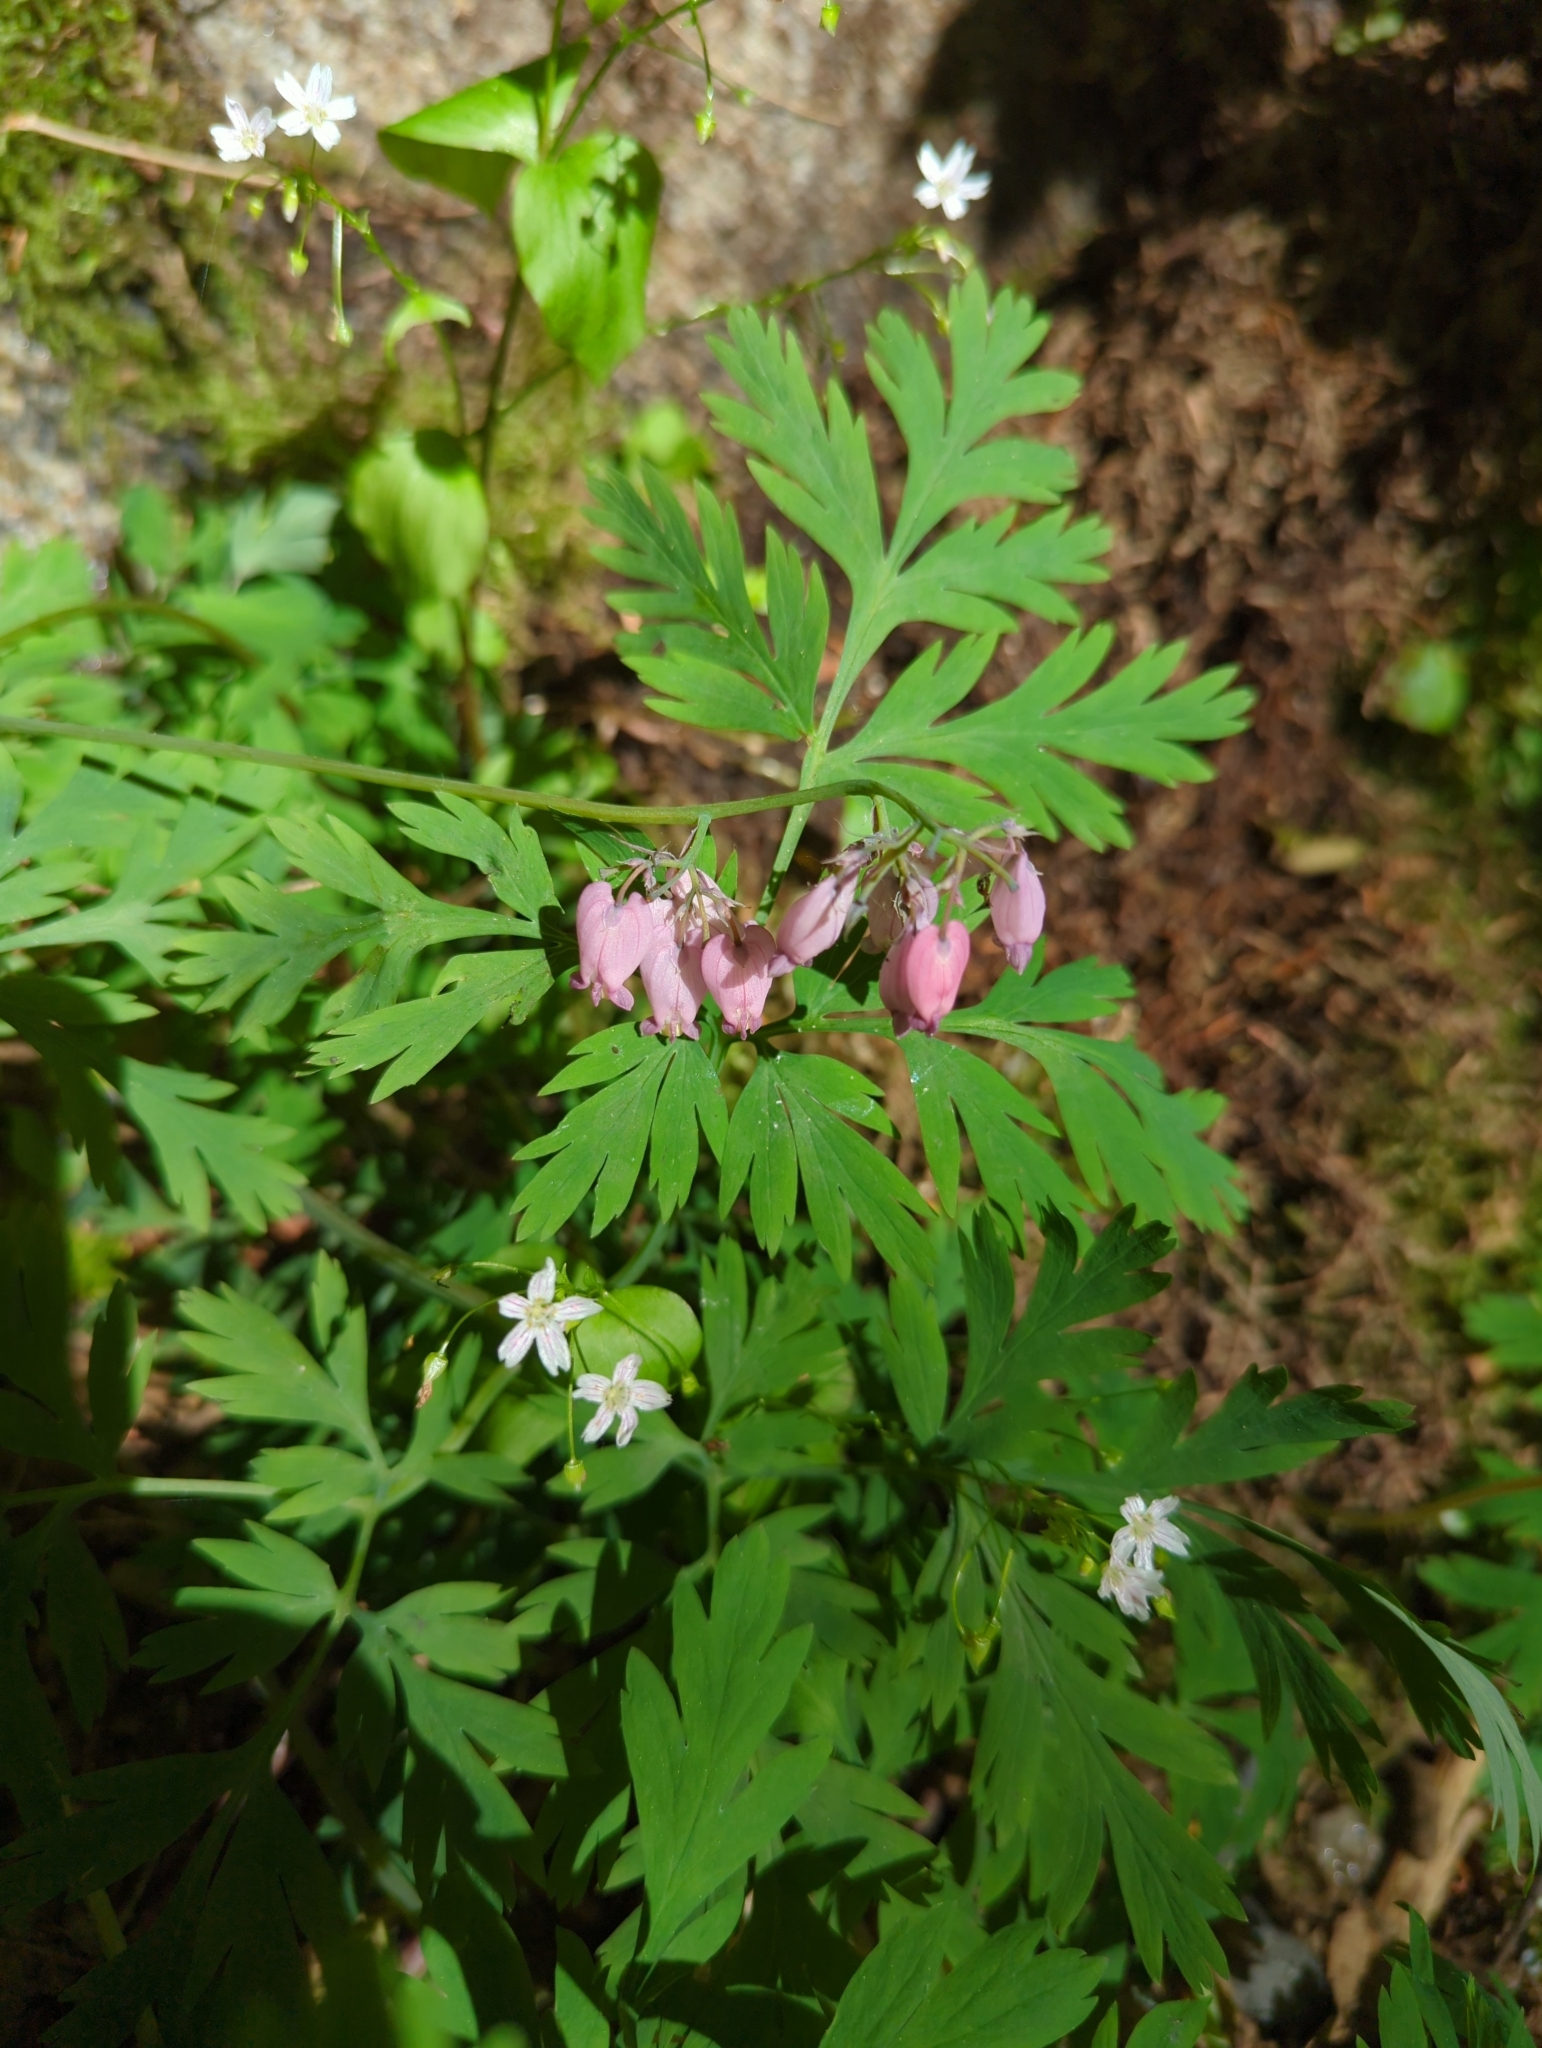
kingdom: Plantae
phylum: Tracheophyta
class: Magnoliopsida
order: Ranunculales
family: Papaveraceae
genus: Dicentra
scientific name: Dicentra formosa
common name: Bleeding-heart
